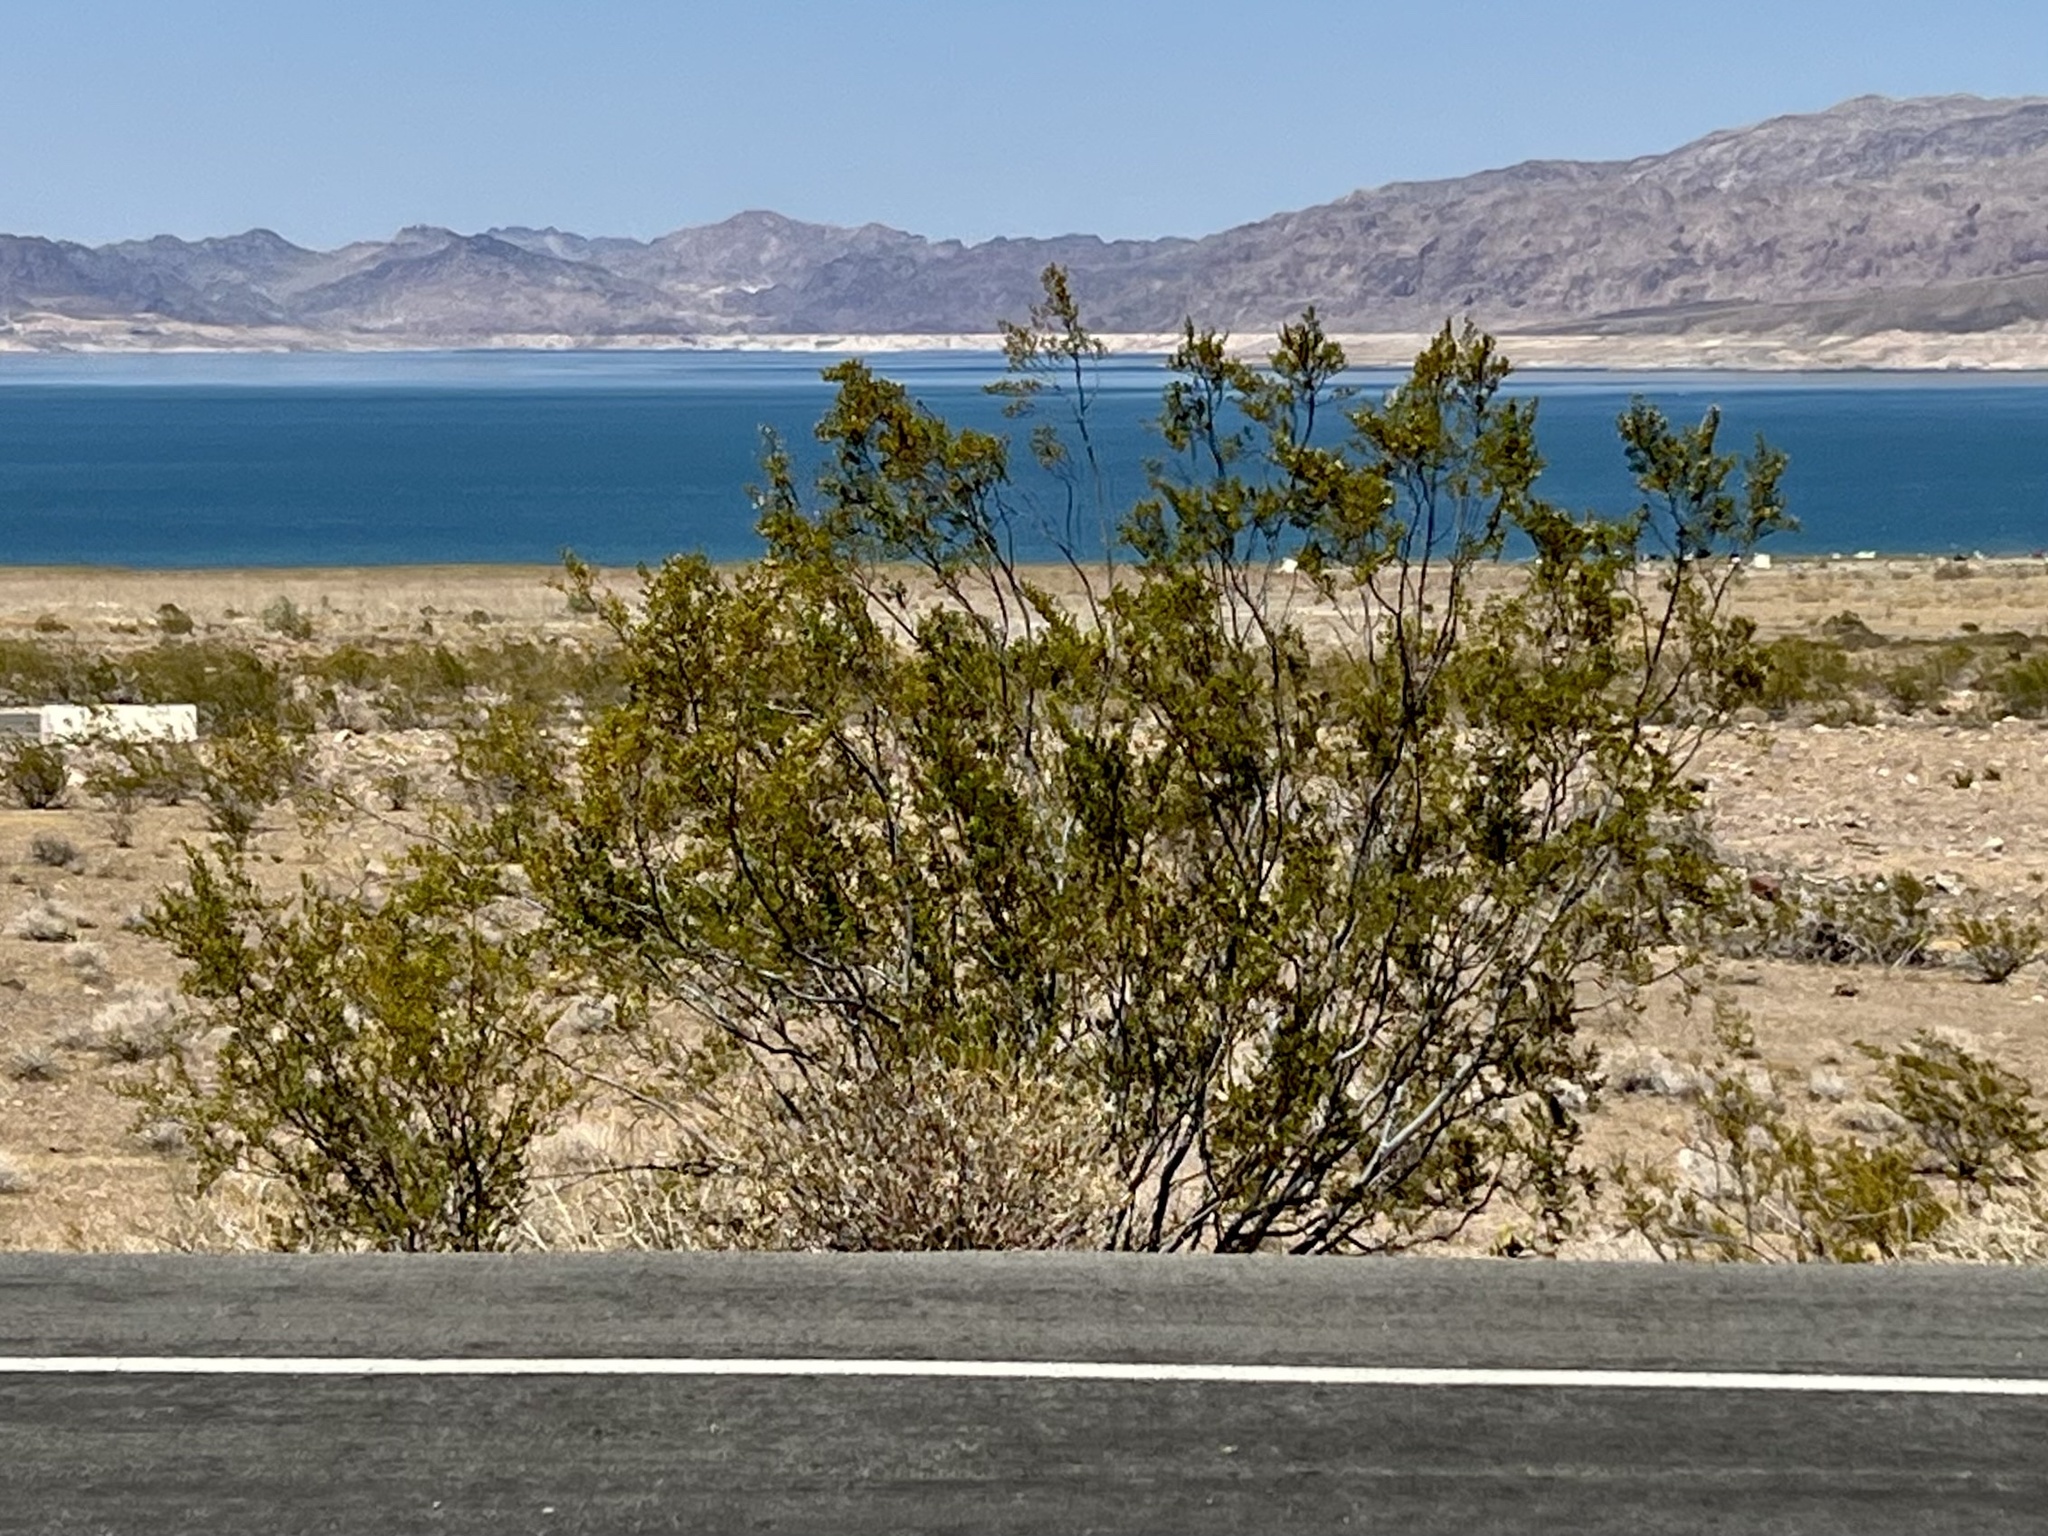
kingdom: Plantae
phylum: Tracheophyta
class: Magnoliopsida
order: Zygophyllales
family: Zygophyllaceae
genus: Larrea
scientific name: Larrea tridentata
